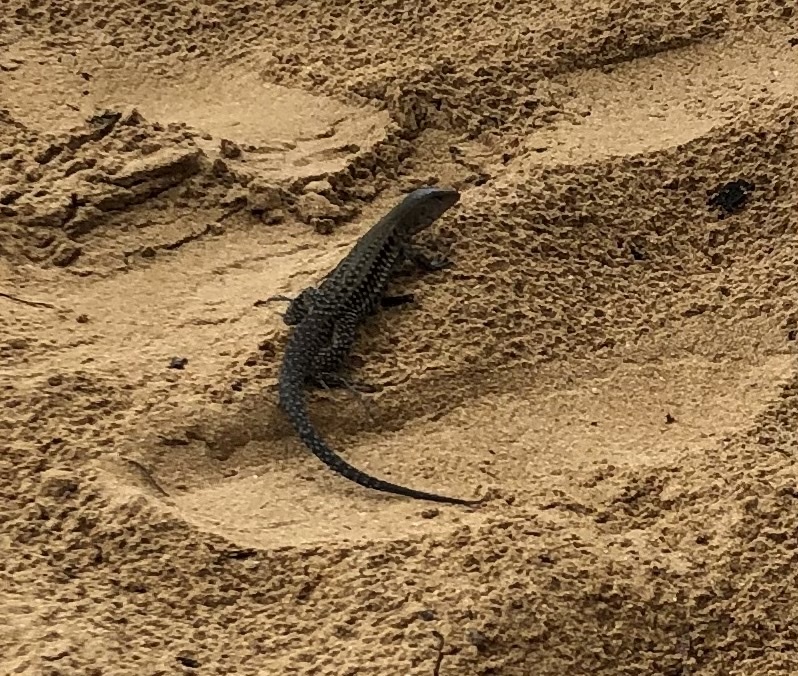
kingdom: Animalia
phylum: Chordata
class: Squamata
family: Teiidae
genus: Pholidoscelis
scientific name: Pholidoscelis exsul
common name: Common puerto rican ameiva
